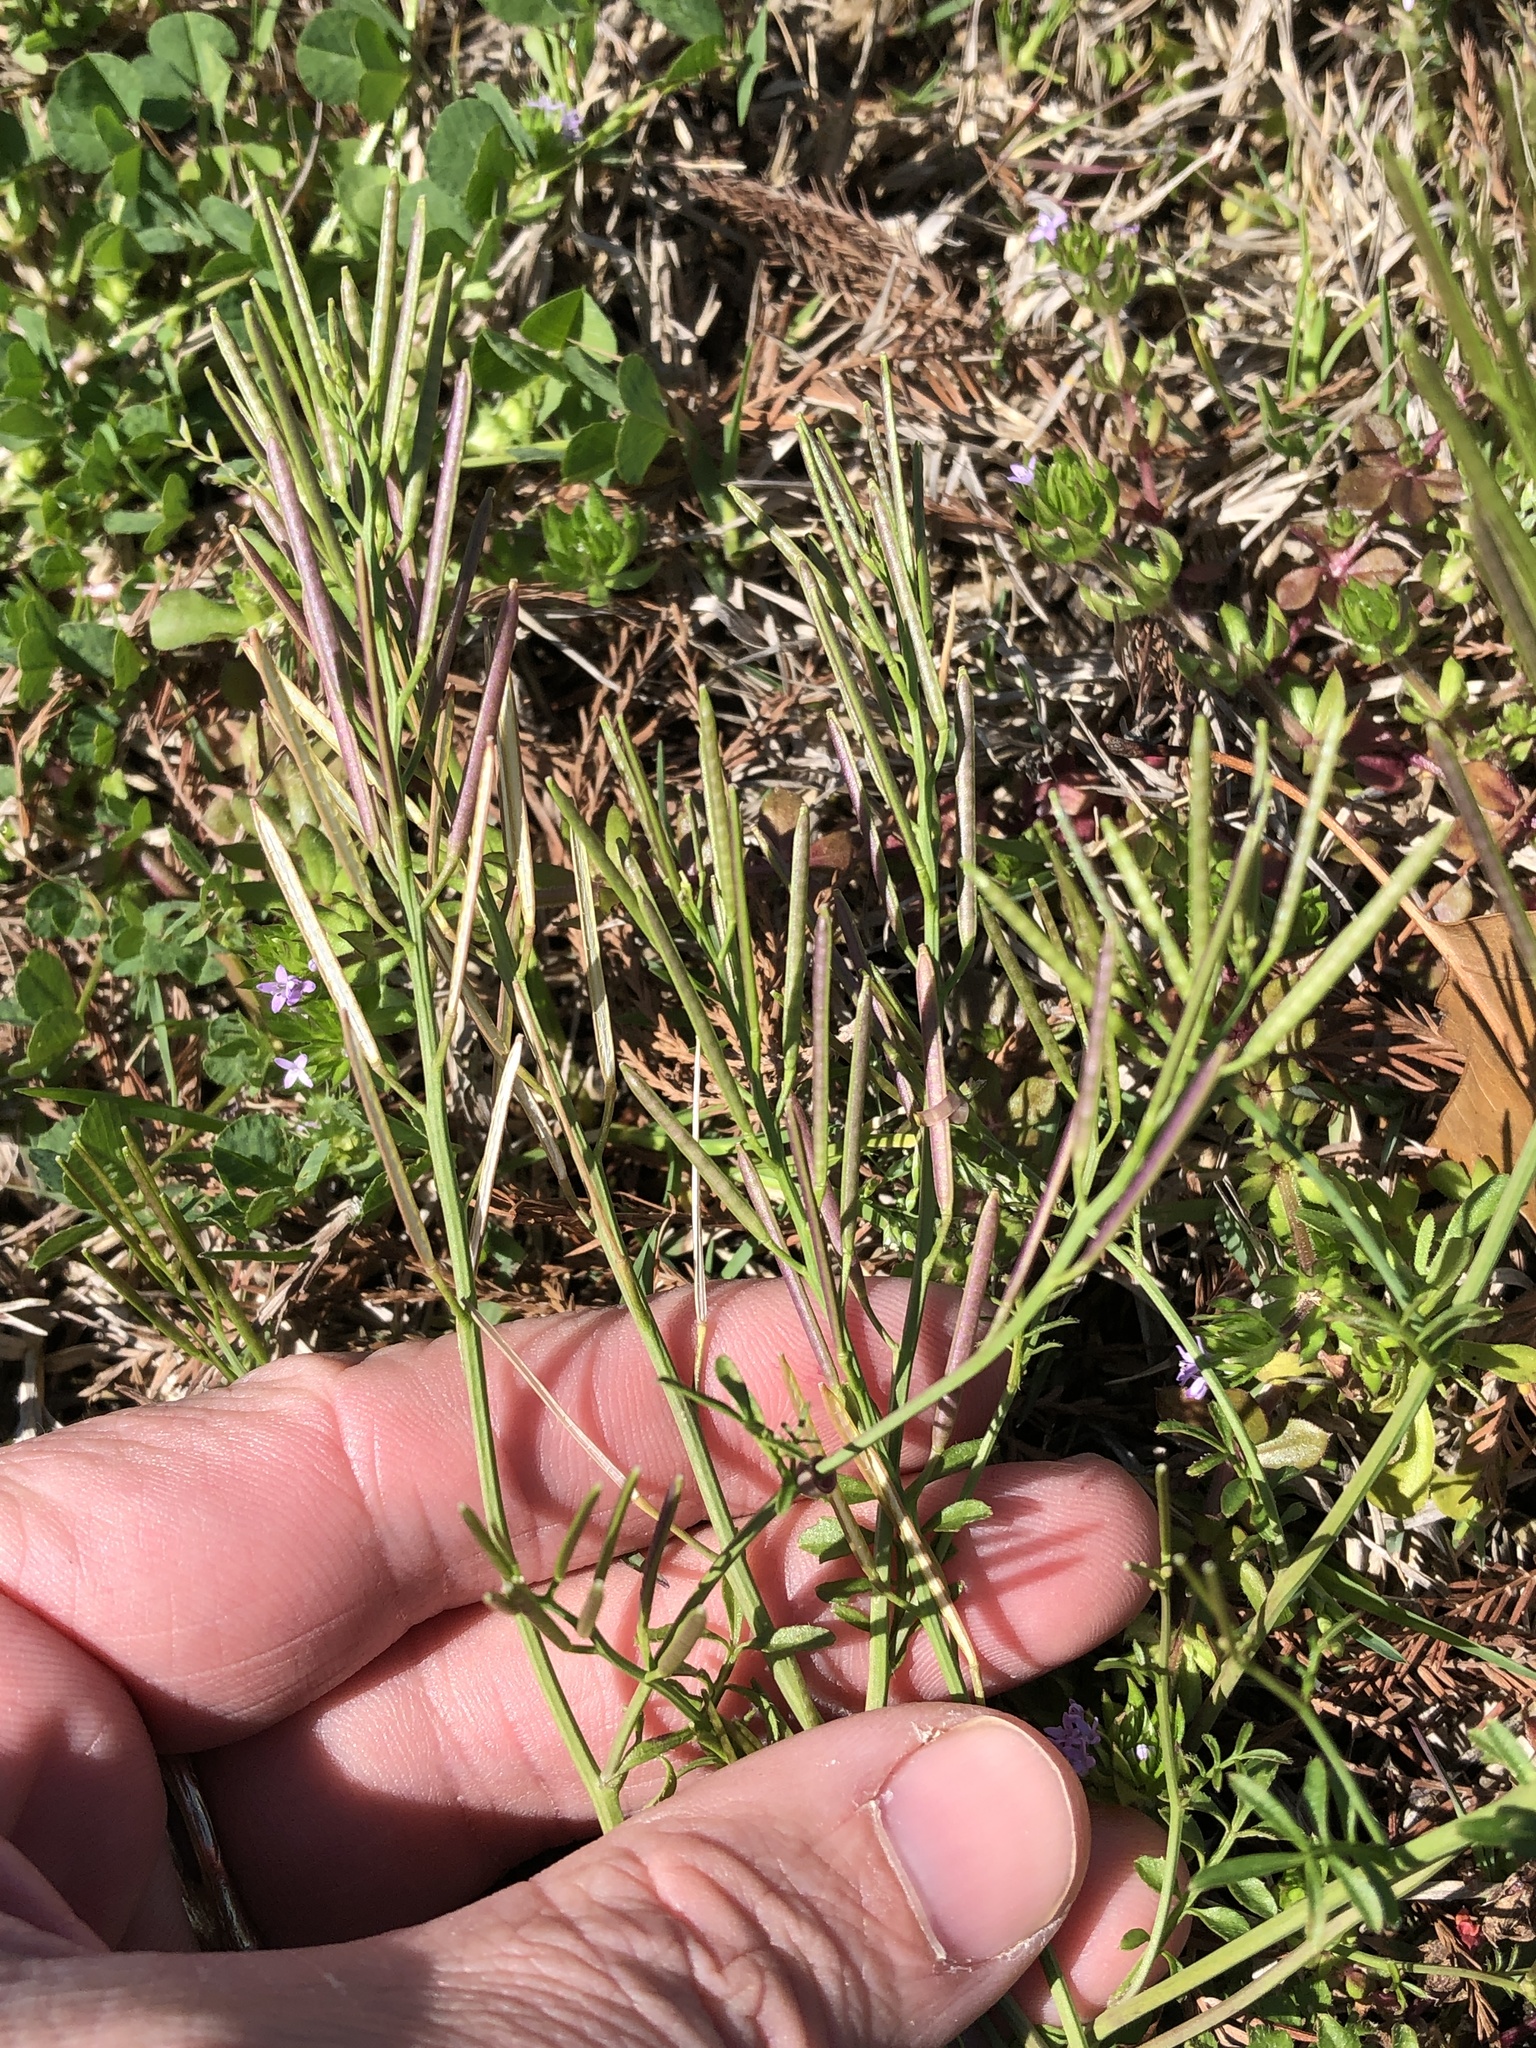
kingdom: Plantae
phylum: Tracheophyta
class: Magnoliopsida
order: Brassicales
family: Brassicaceae
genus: Cardamine
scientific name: Cardamine hirsuta
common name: Hairy bittercress
